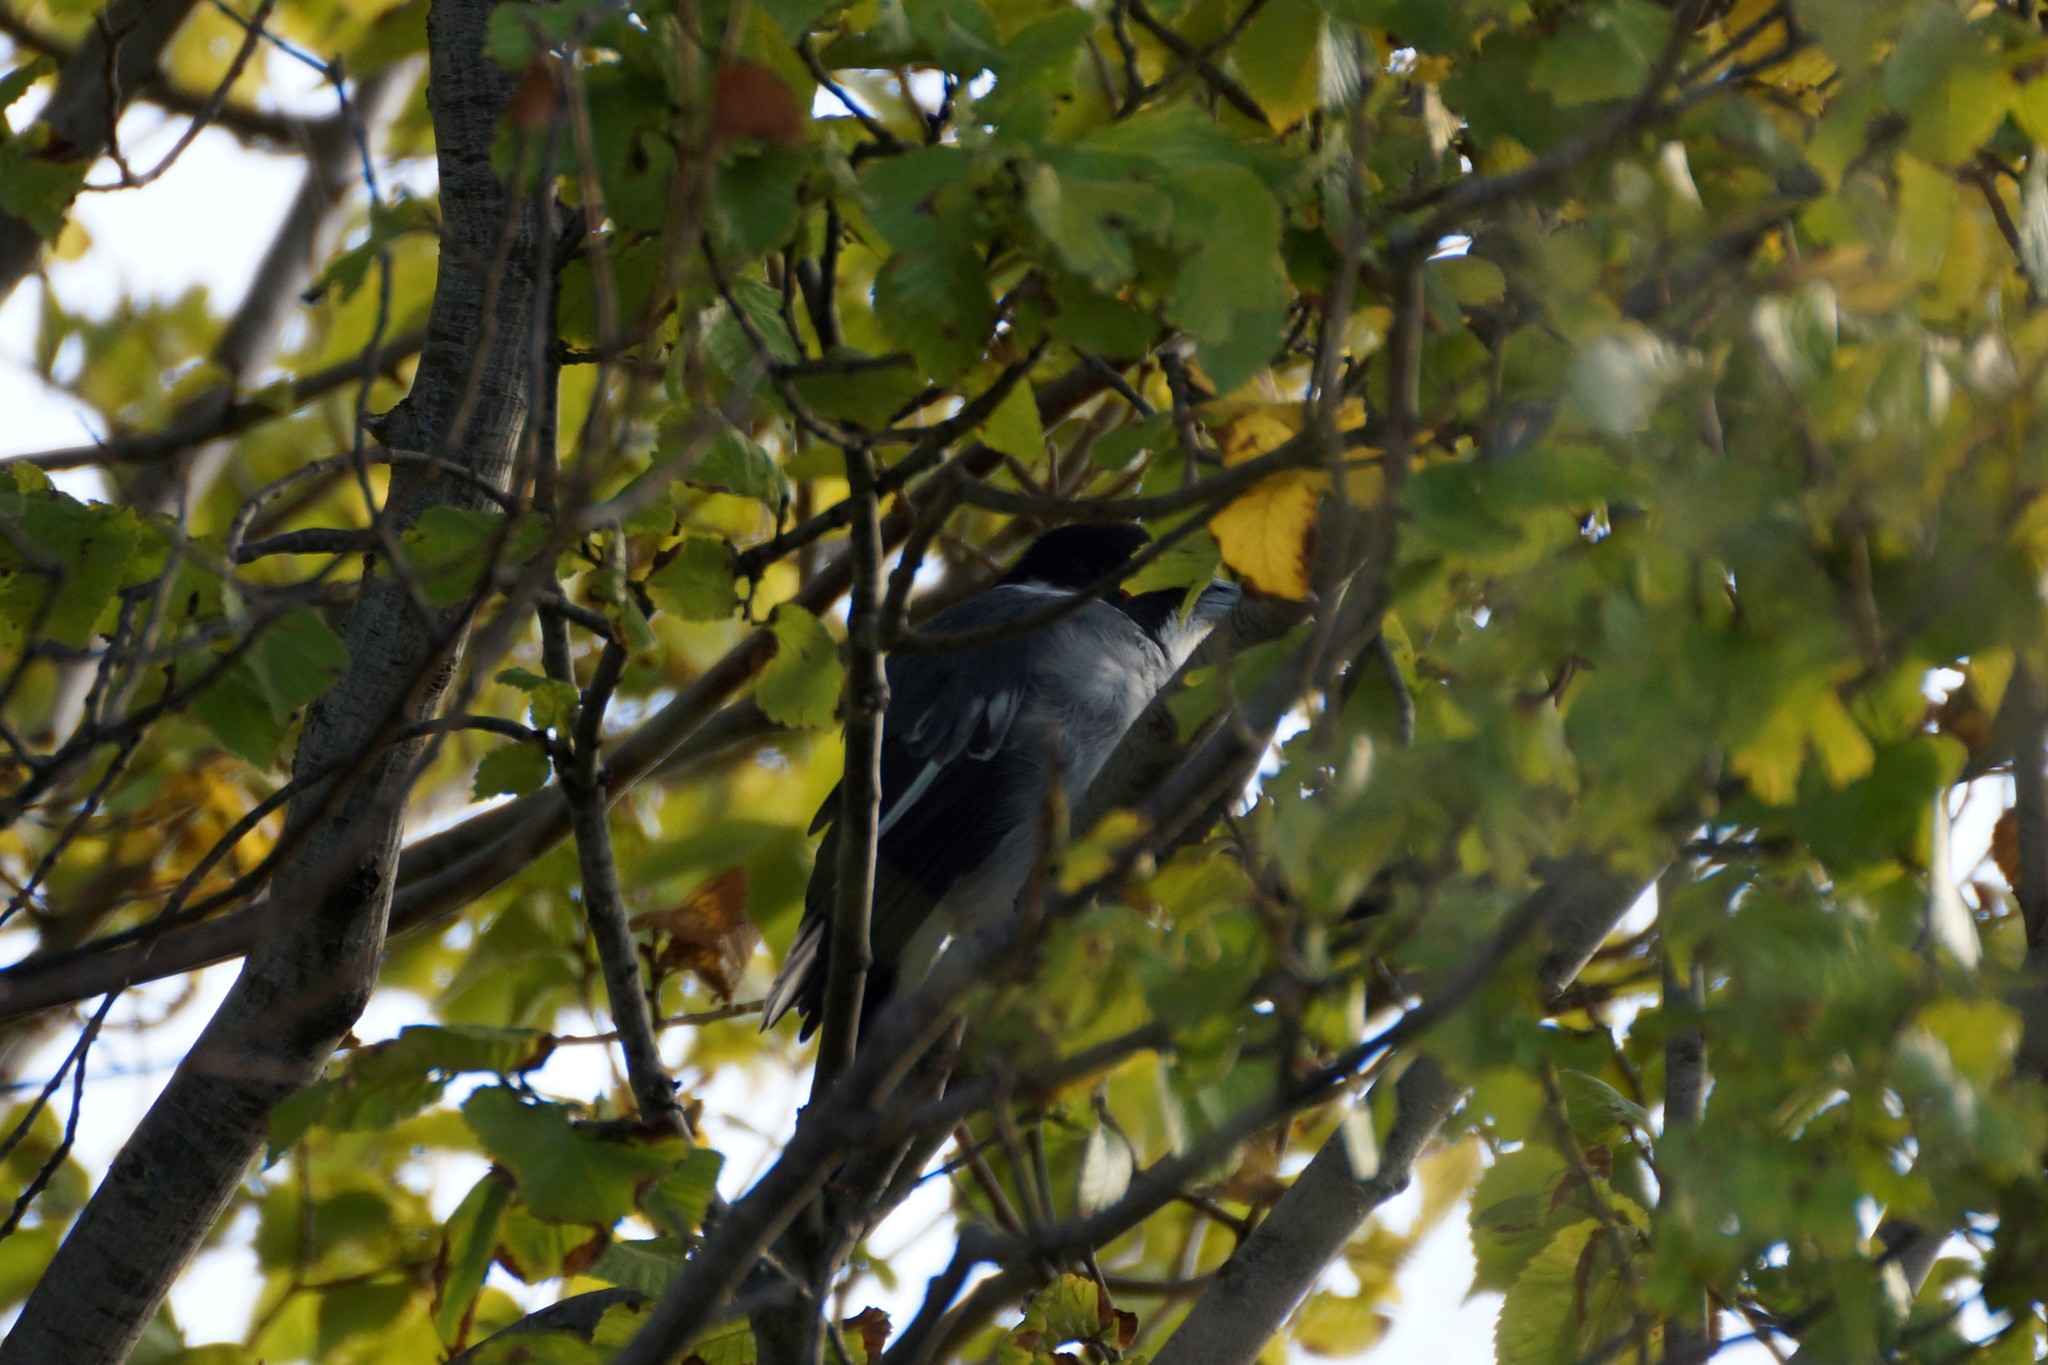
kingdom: Animalia
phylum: Chordata
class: Aves
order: Passeriformes
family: Cracticidae
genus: Cracticus
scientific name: Cracticus torquatus
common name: Grey butcherbird
